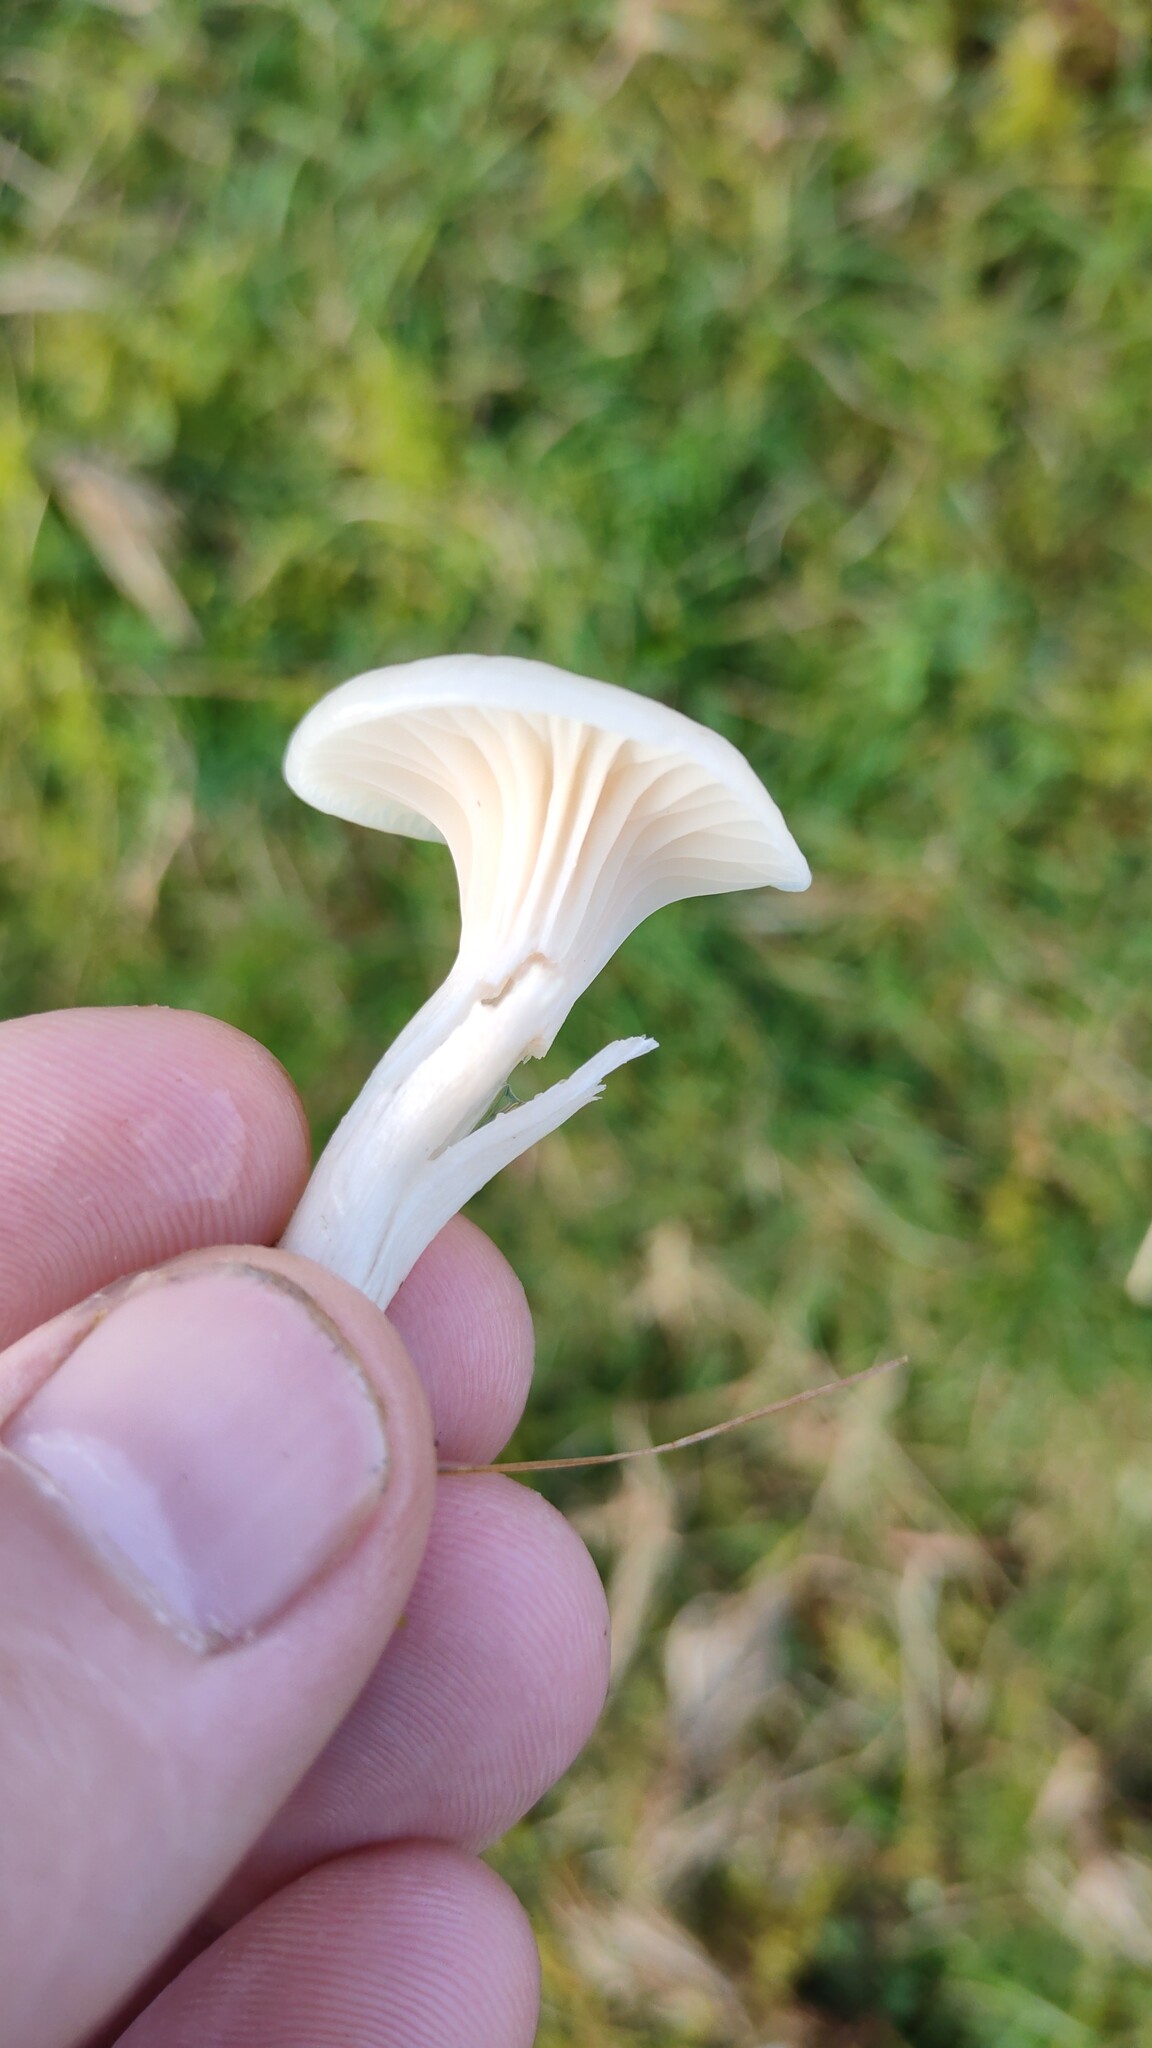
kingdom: Fungi
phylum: Basidiomycota
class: Agaricomycetes
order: Agaricales
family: Hygrophoraceae
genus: Cuphophyllus
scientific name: Cuphophyllus virgineus
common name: Snowy waxcap
